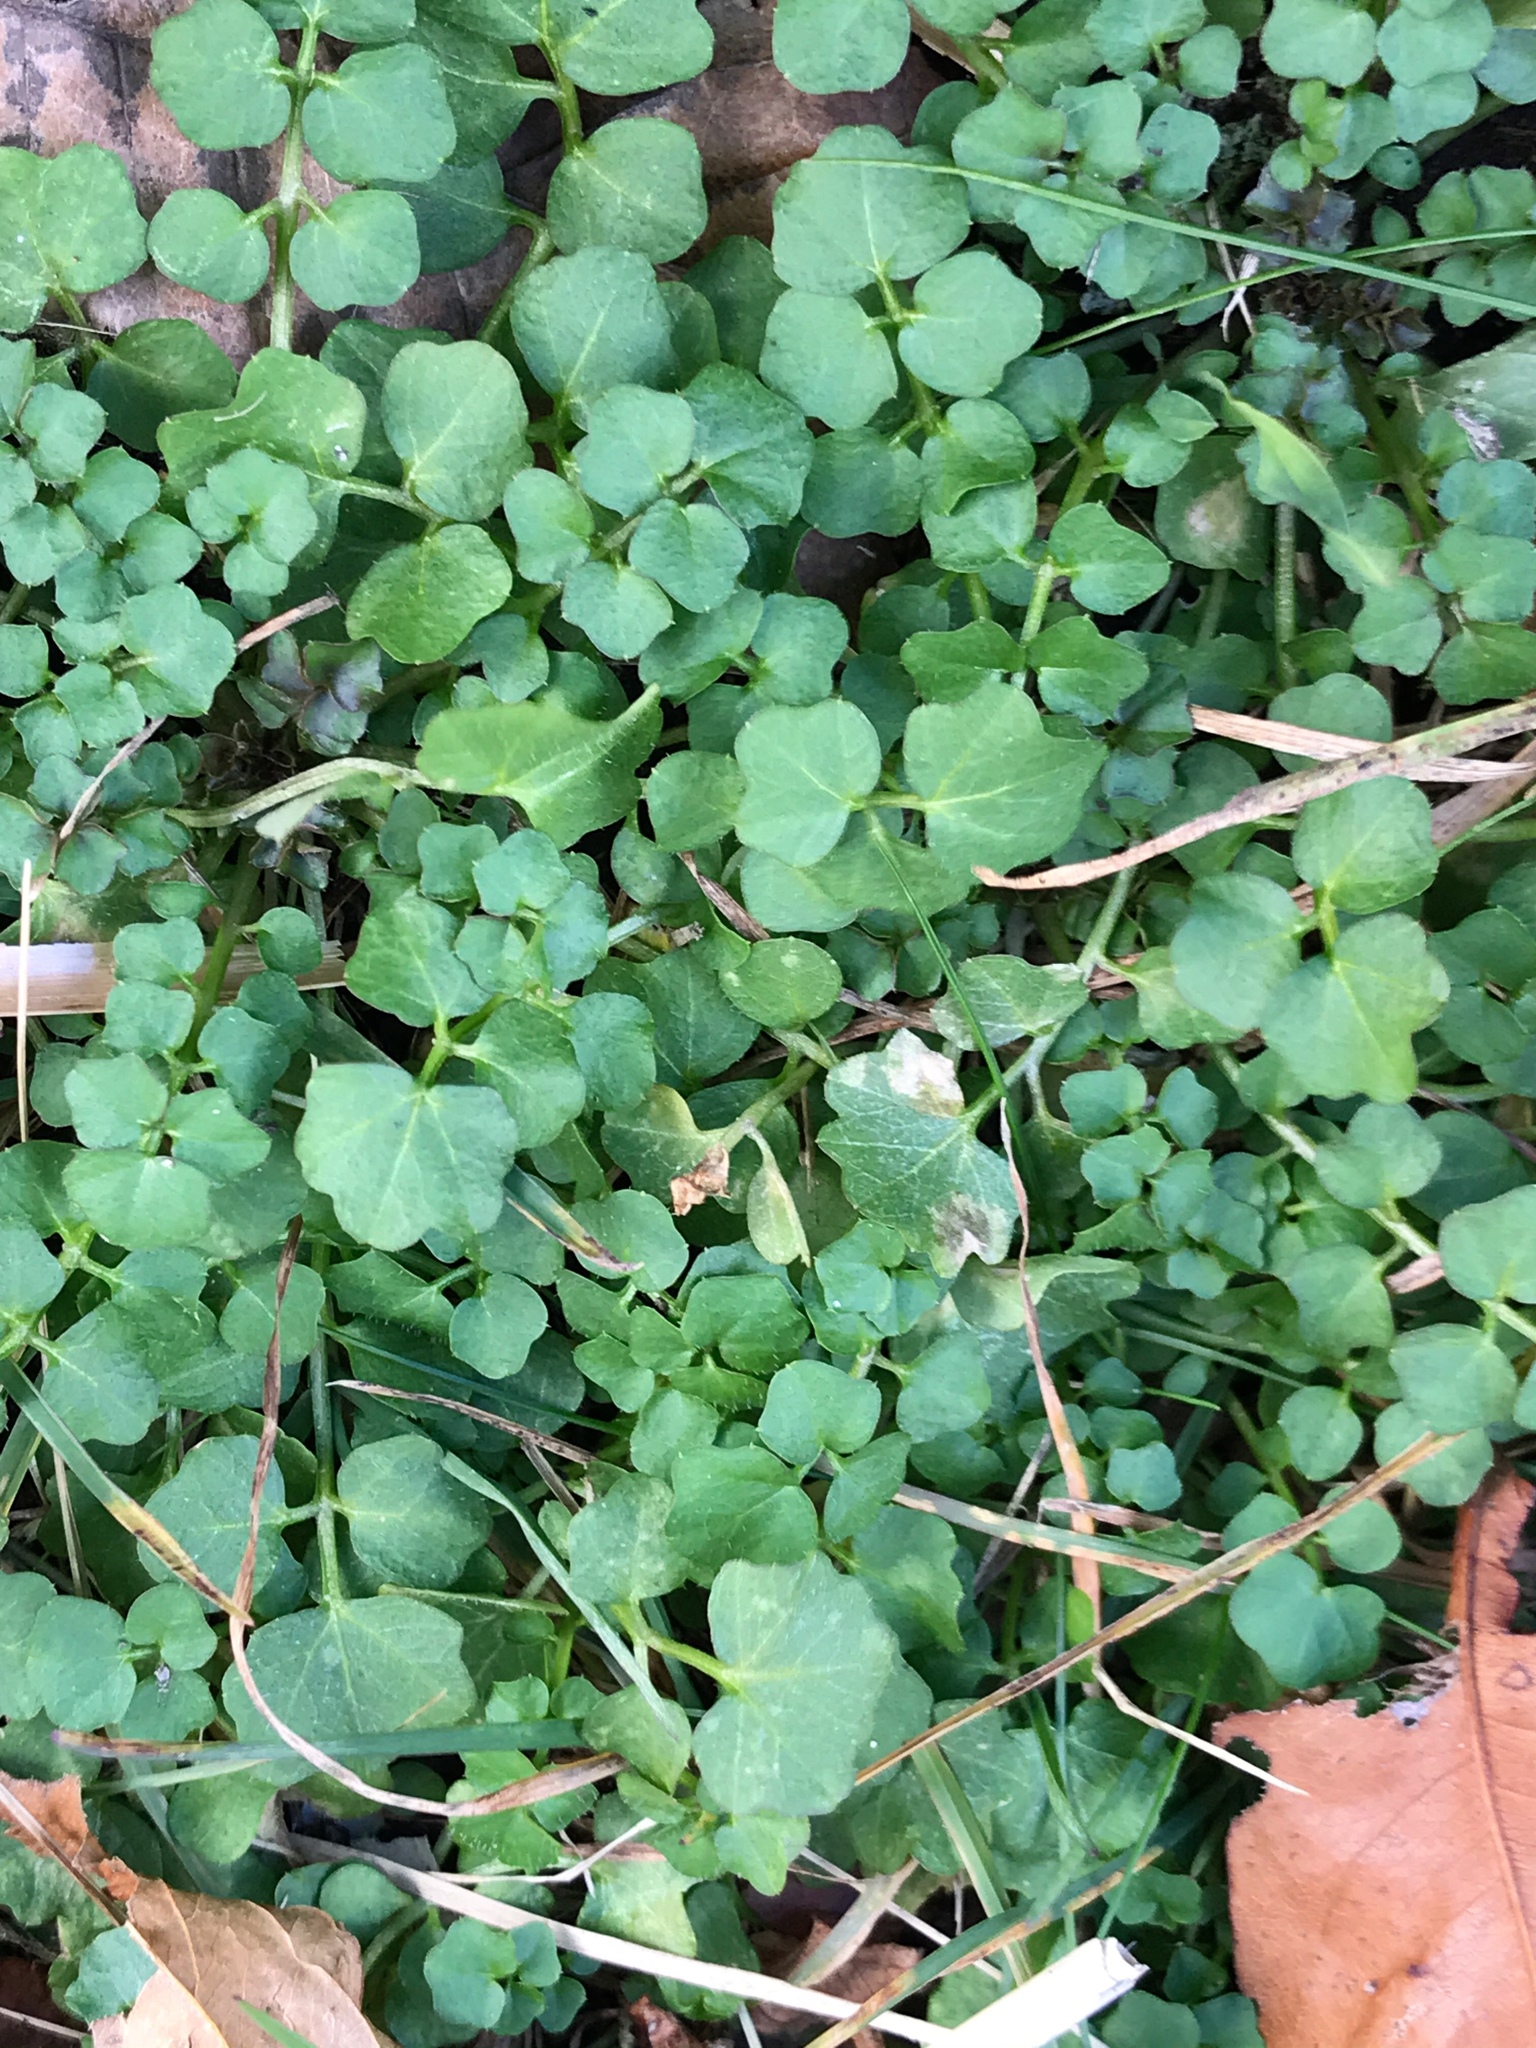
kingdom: Plantae
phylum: Tracheophyta
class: Magnoliopsida
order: Brassicales
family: Brassicaceae
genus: Cardamine
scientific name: Cardamine hirsuta
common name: Hairy bittercress
